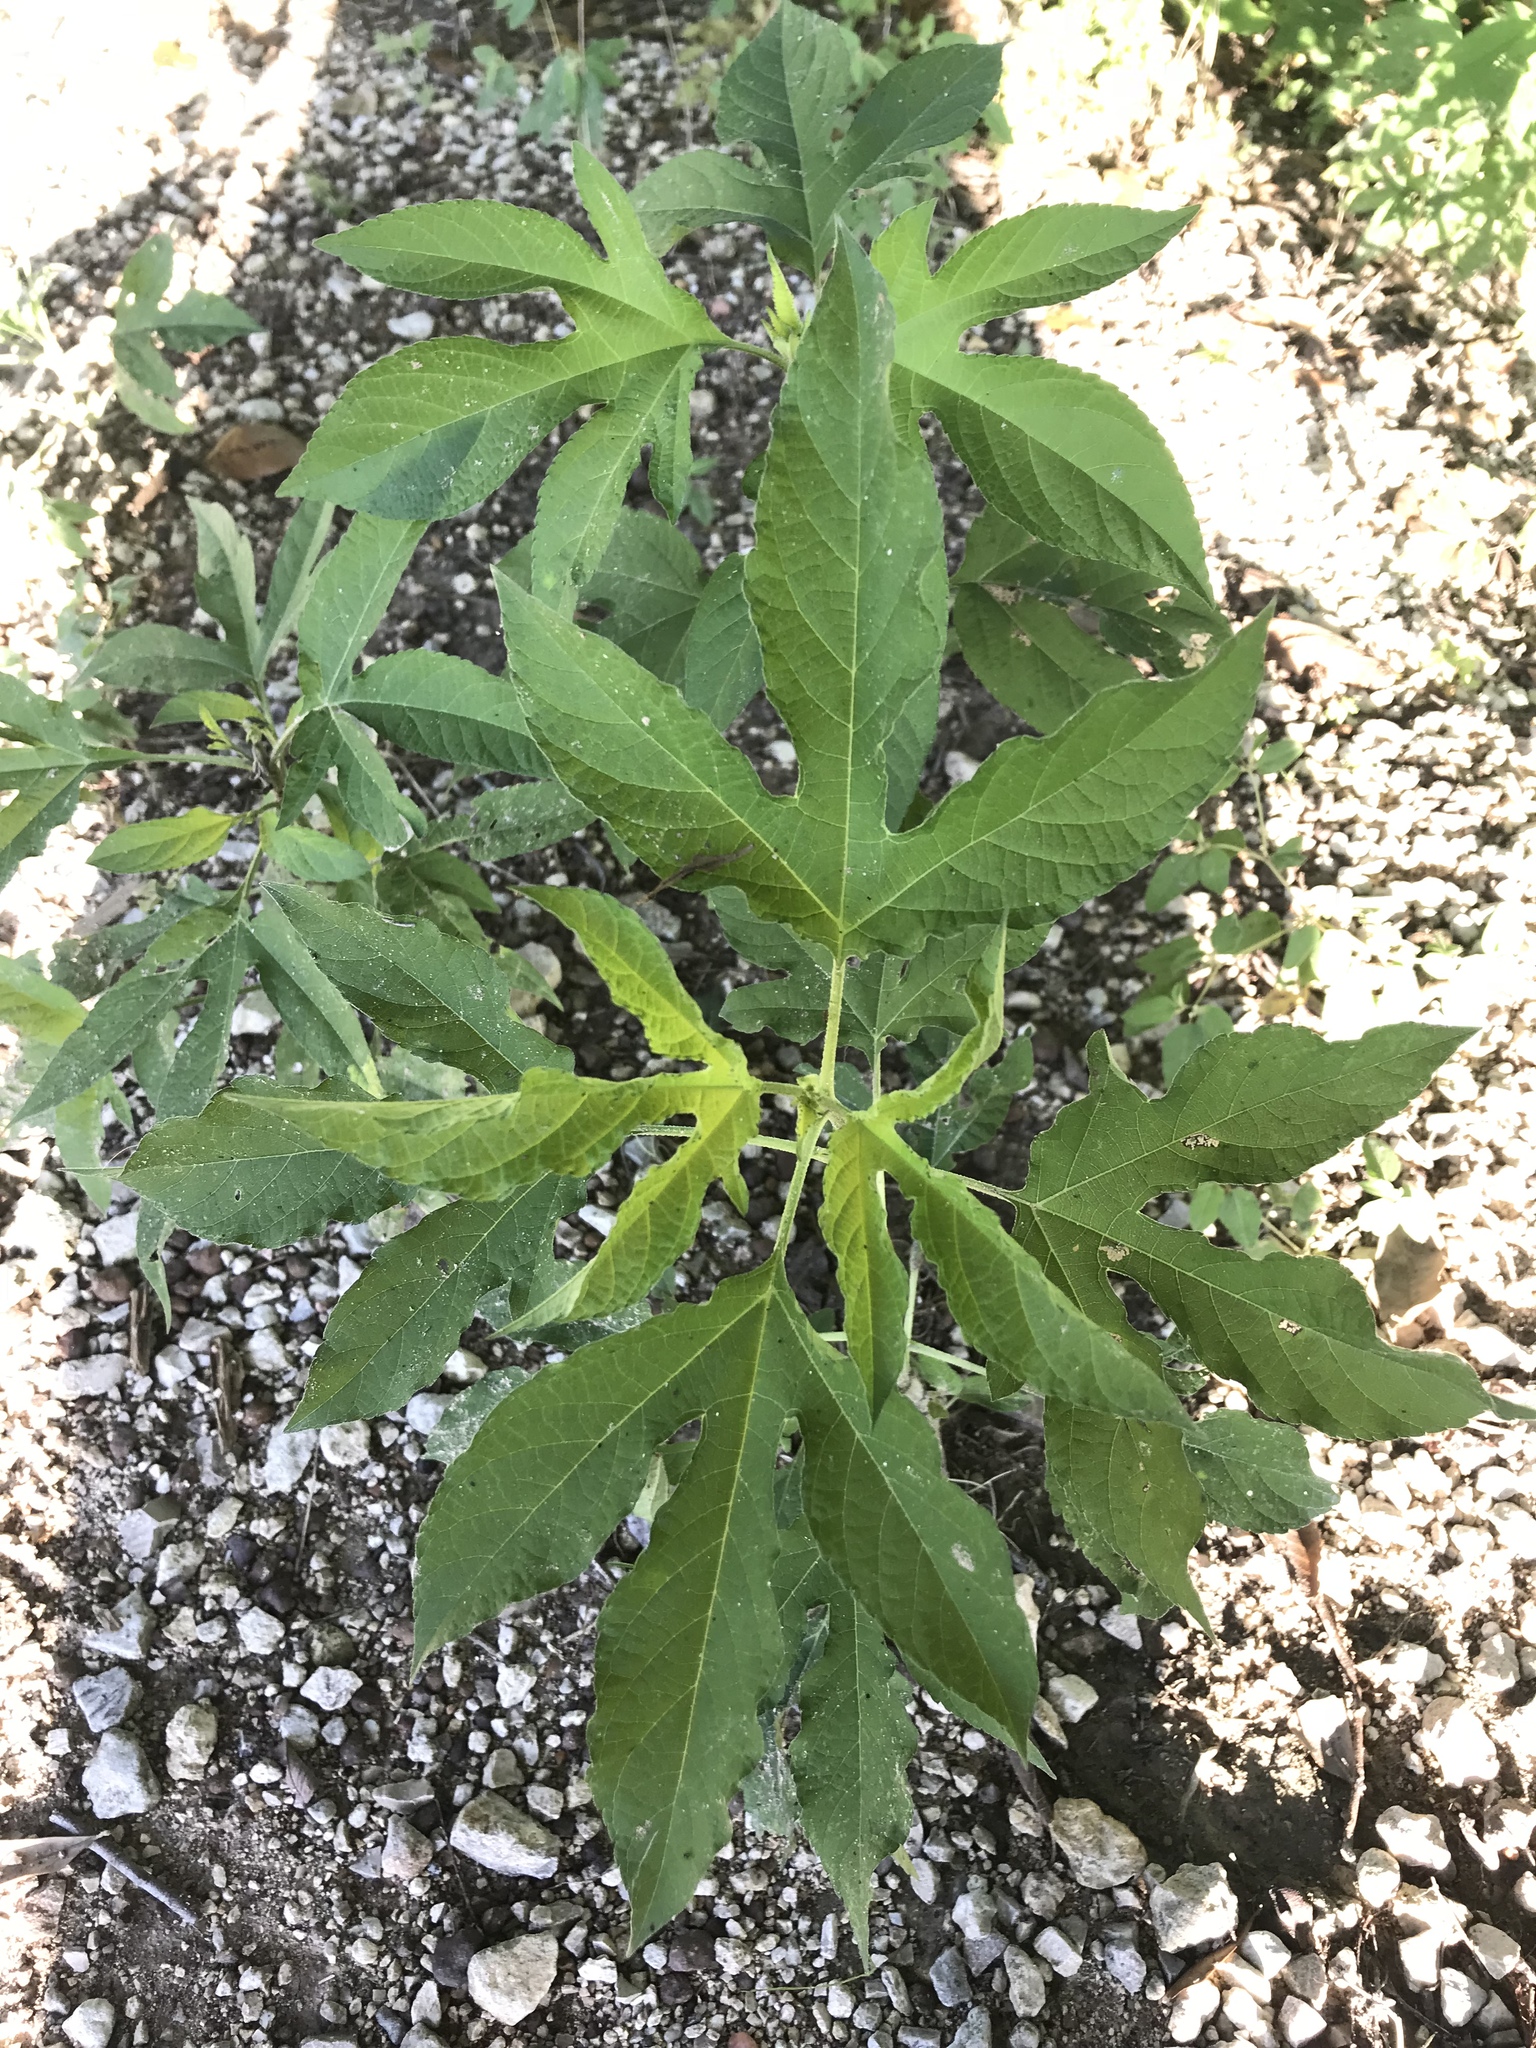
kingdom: Plantae
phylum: Tracheophyta
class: Magnoliopsida
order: Asterales
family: Asteraceae
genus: Ambrosia
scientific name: Ambrosia trifida
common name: Giant ragweed
